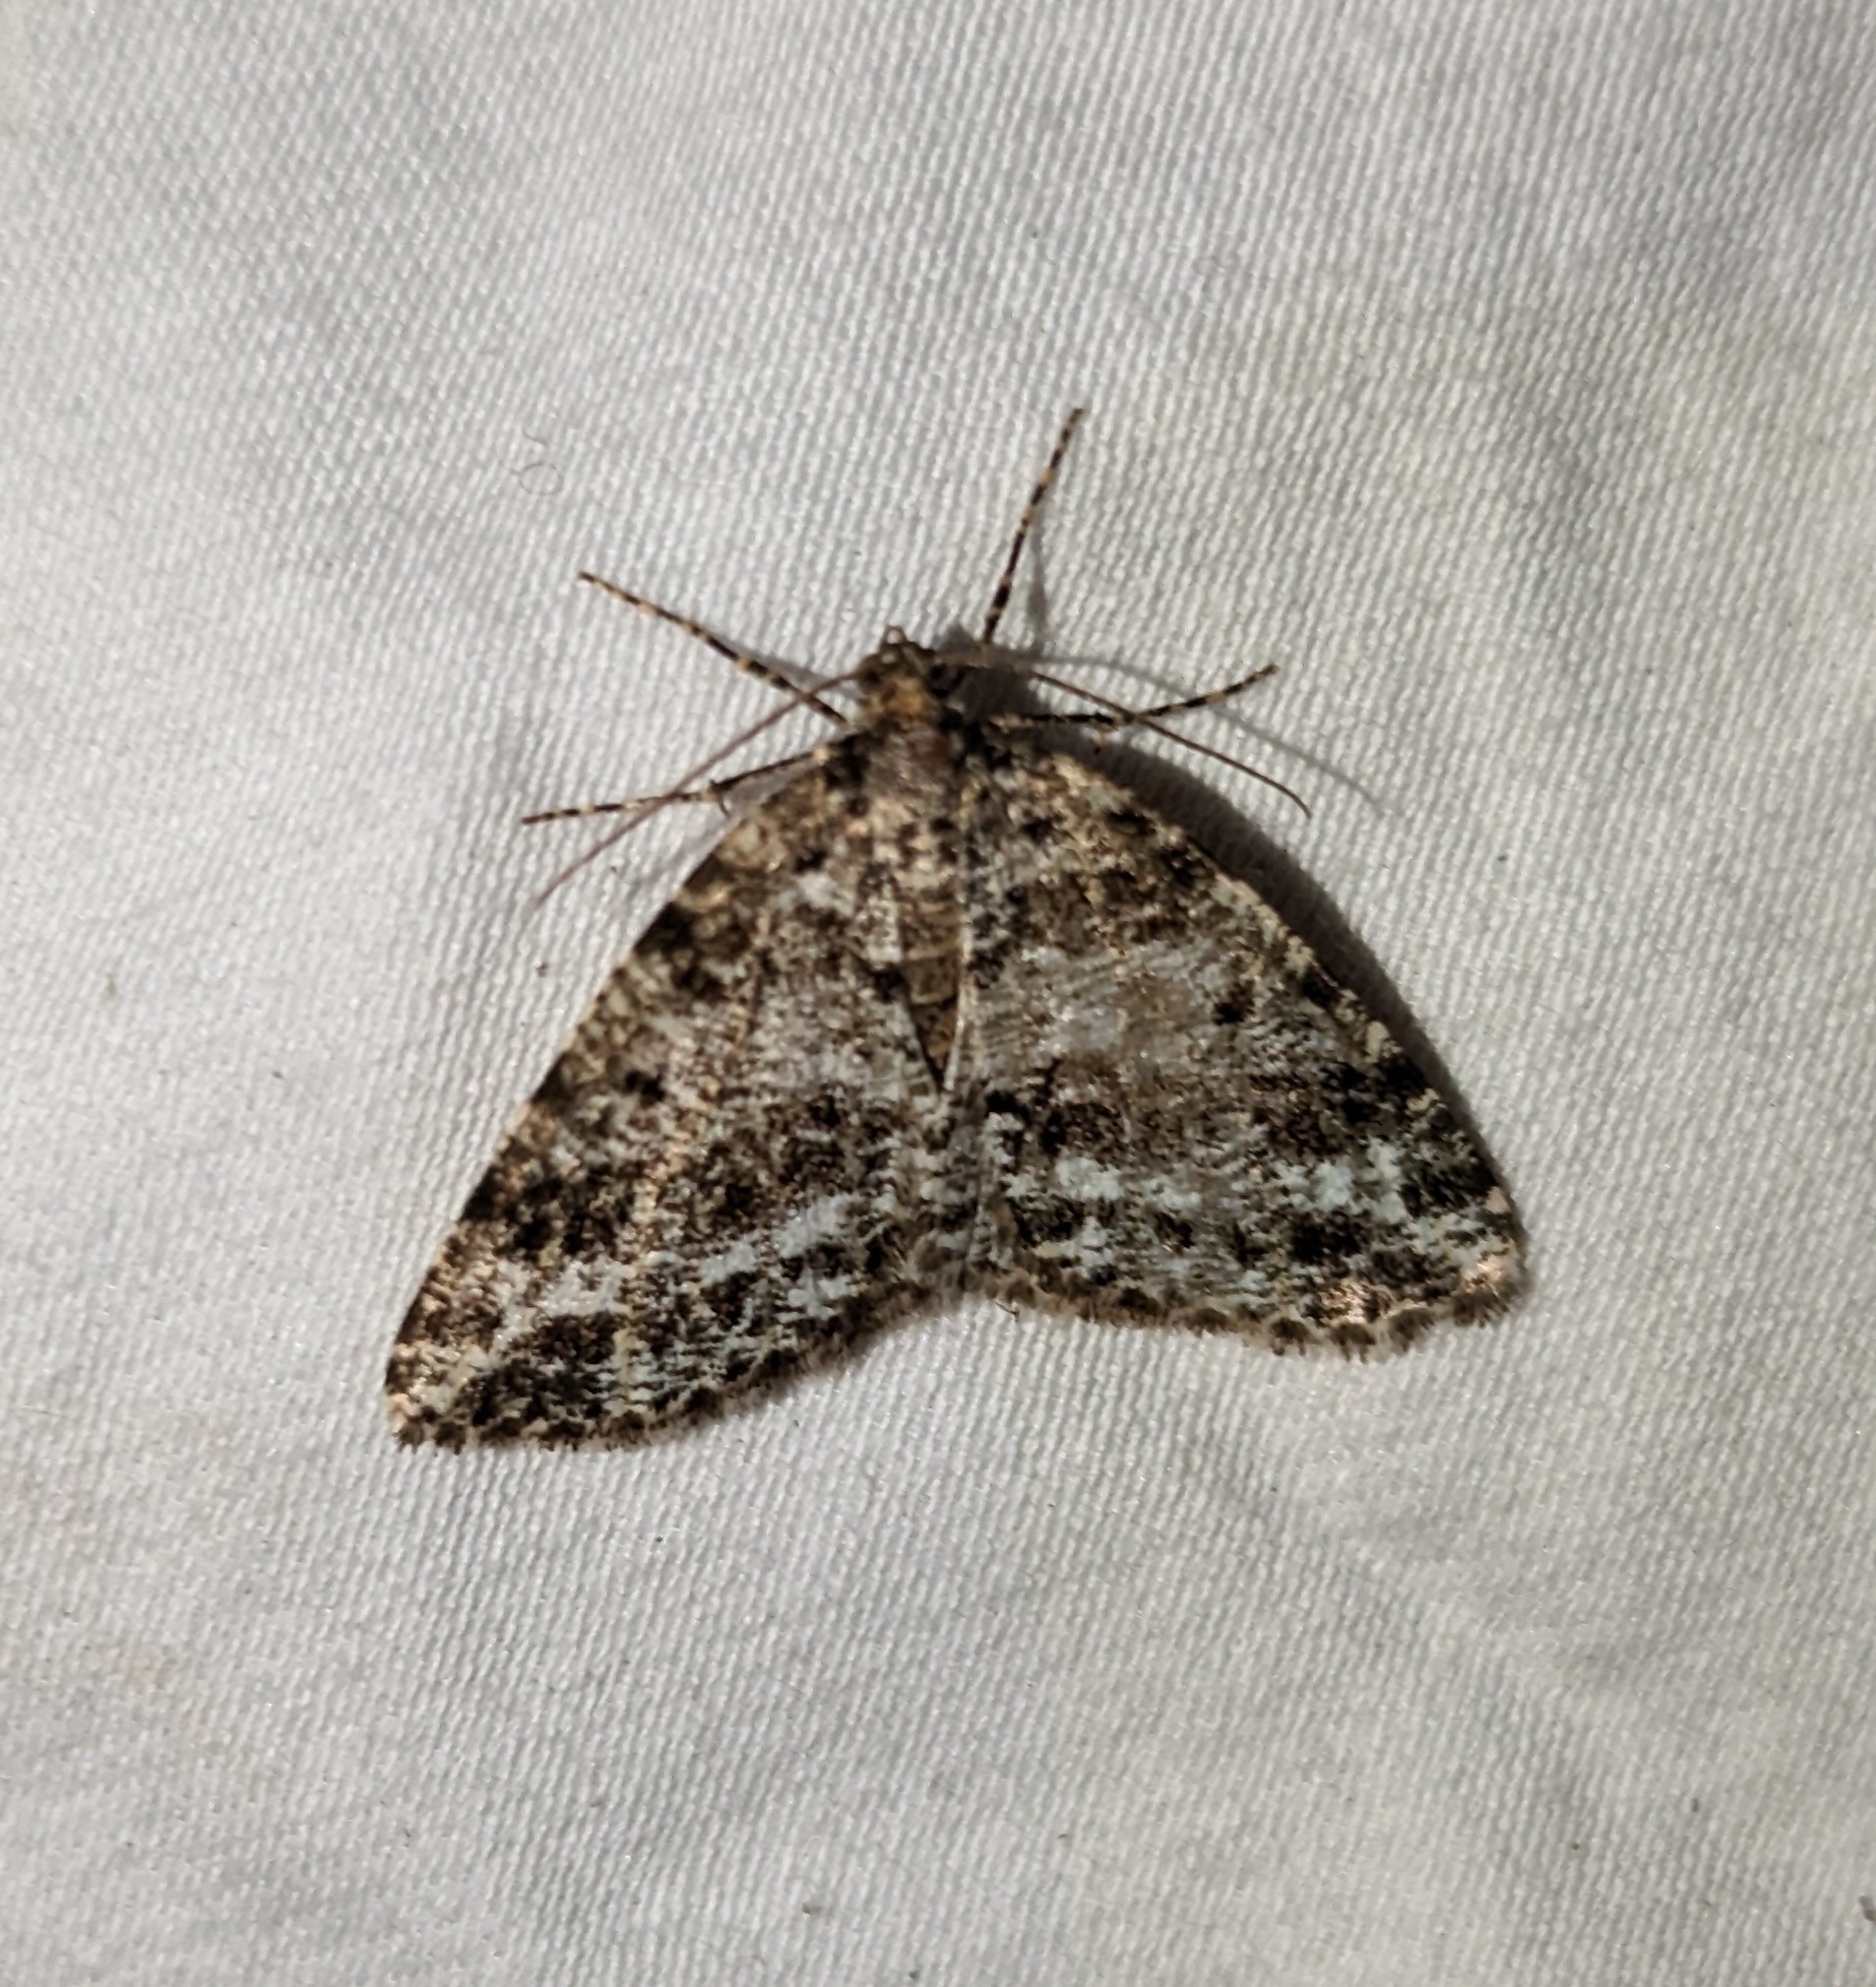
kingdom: Animalia
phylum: Arthropoda
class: Insecta
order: Lepidoptera
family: Geometridae
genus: Orthofidonia
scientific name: Orthofidonia tinctaria
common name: Marbled wave
